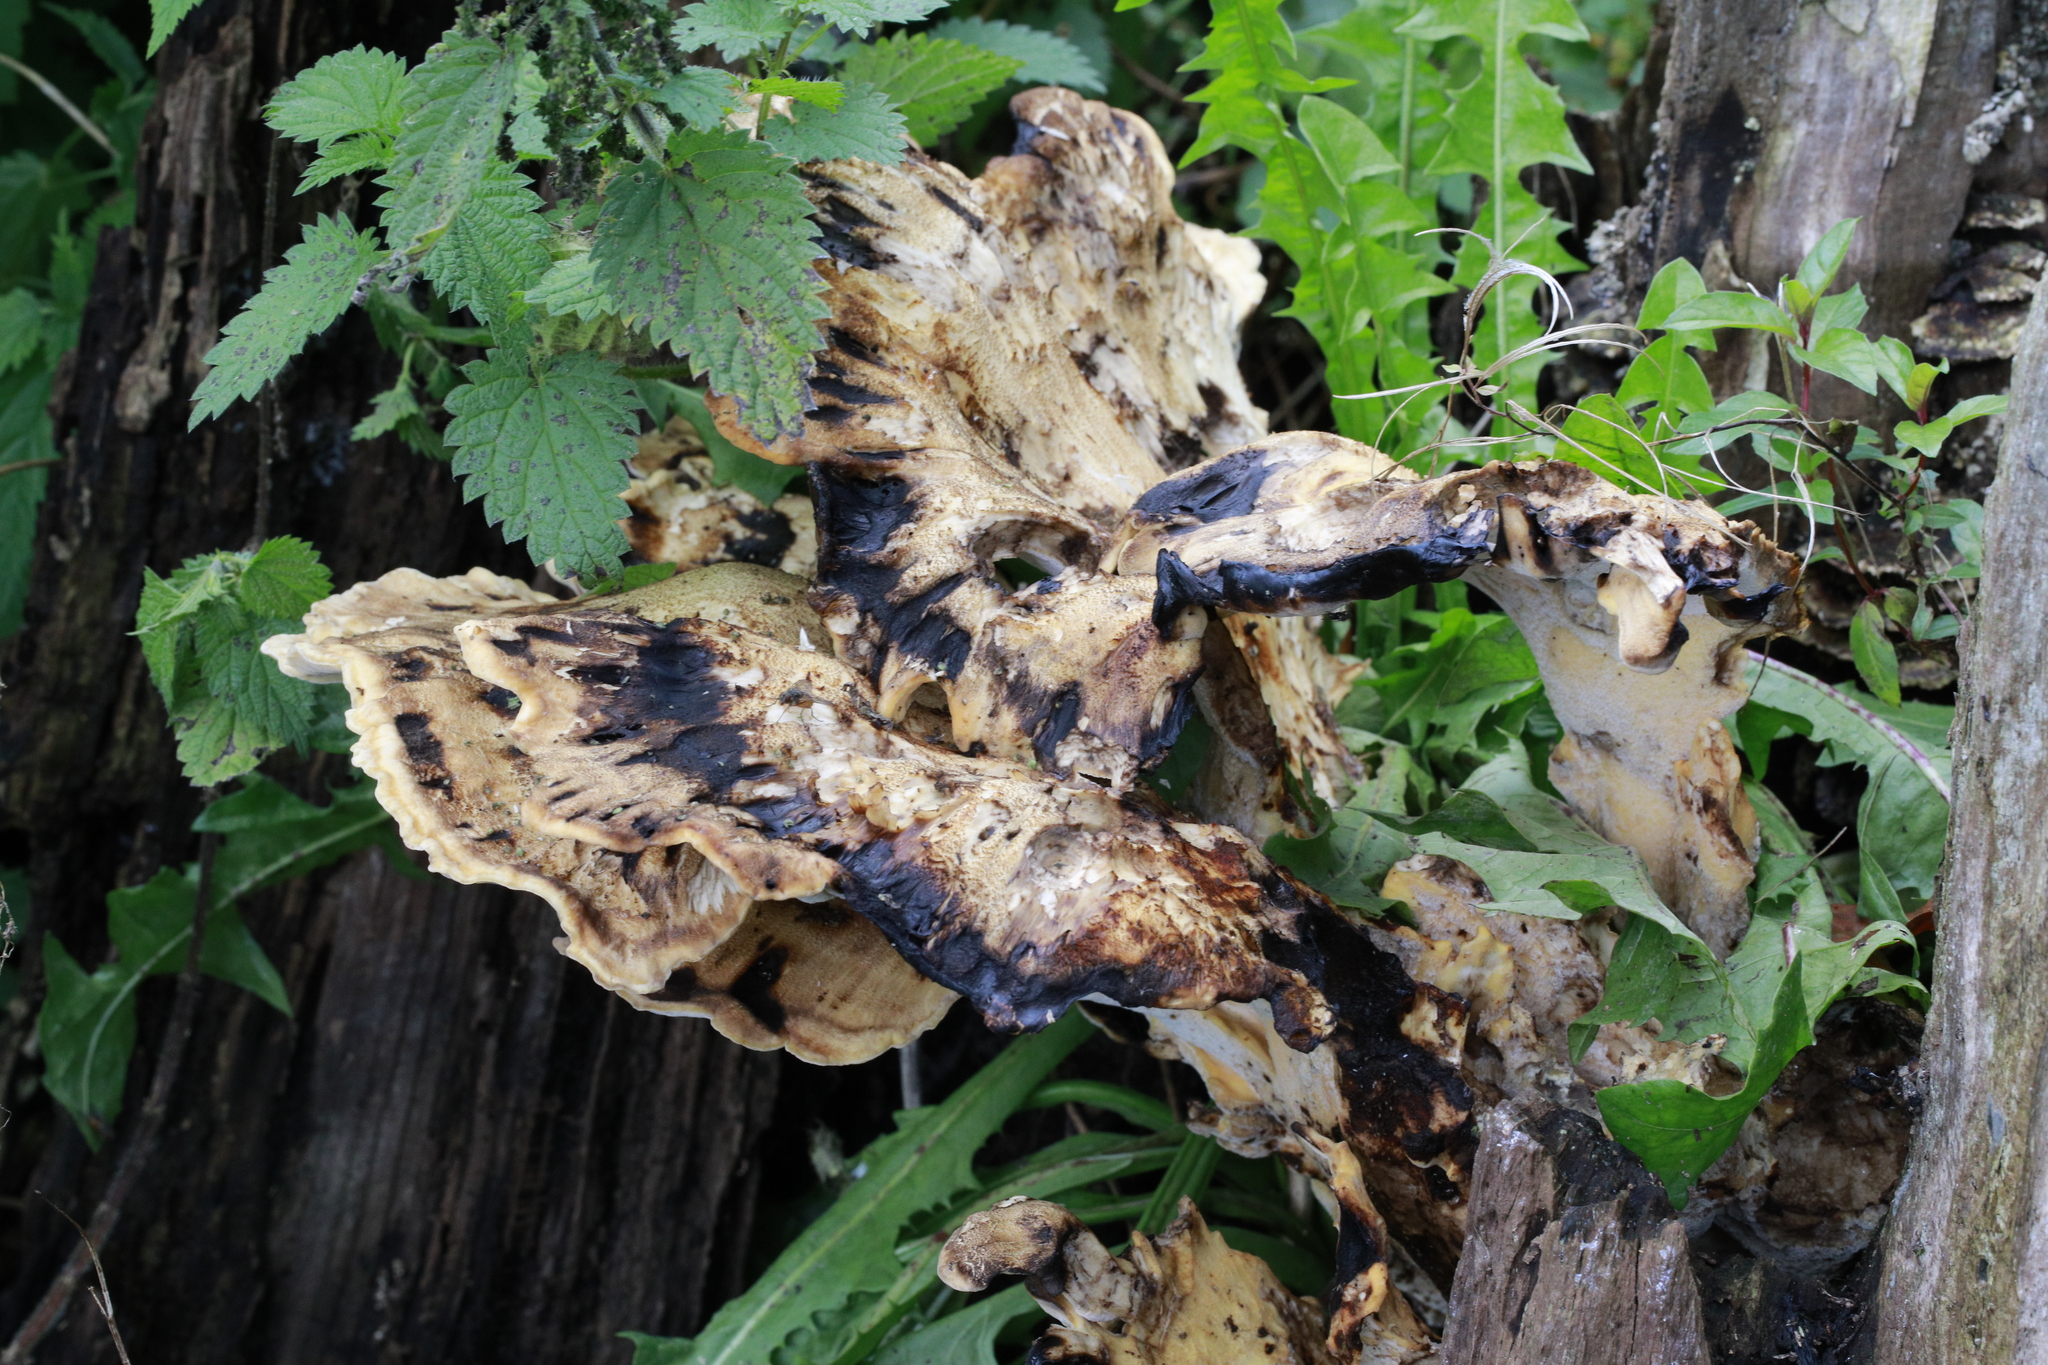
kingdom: Fungi
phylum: Basidiomycota
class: Agaricomycetes
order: Polyporales
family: Meripilaceae
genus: Meripilus
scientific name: Meripilus giganteus
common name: Giant polypore
